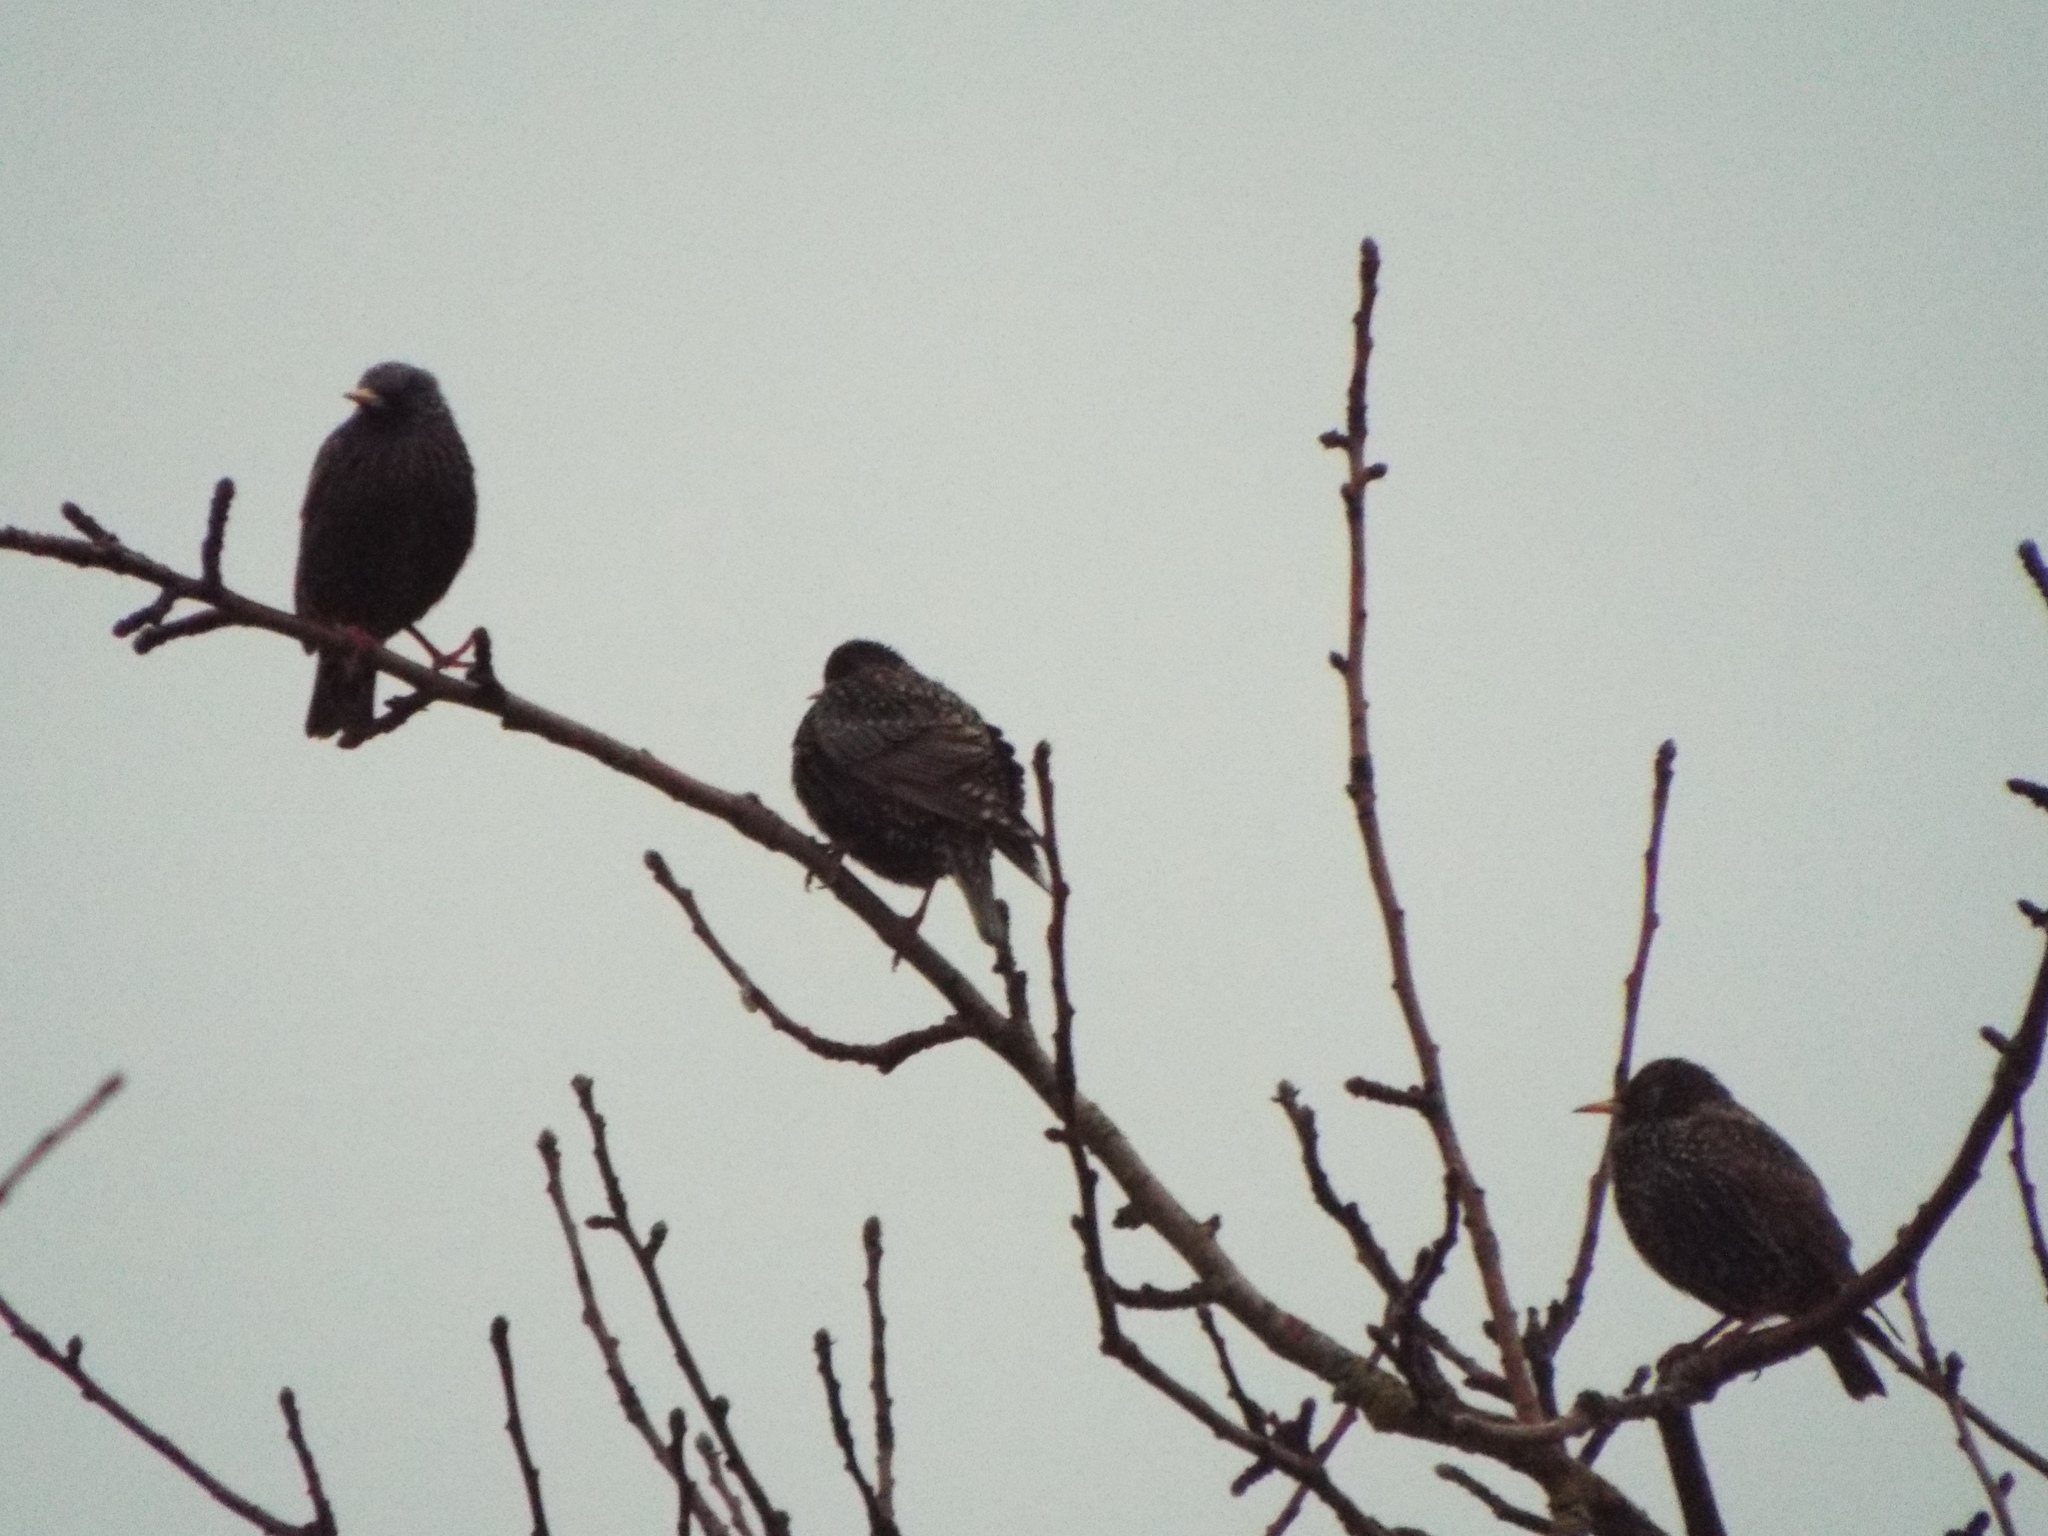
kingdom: Animalia
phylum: Chordata
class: Aves
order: Passeriformes
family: Sturnidae
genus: Sturnus
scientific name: Sturnus vulgaris
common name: Common starling
